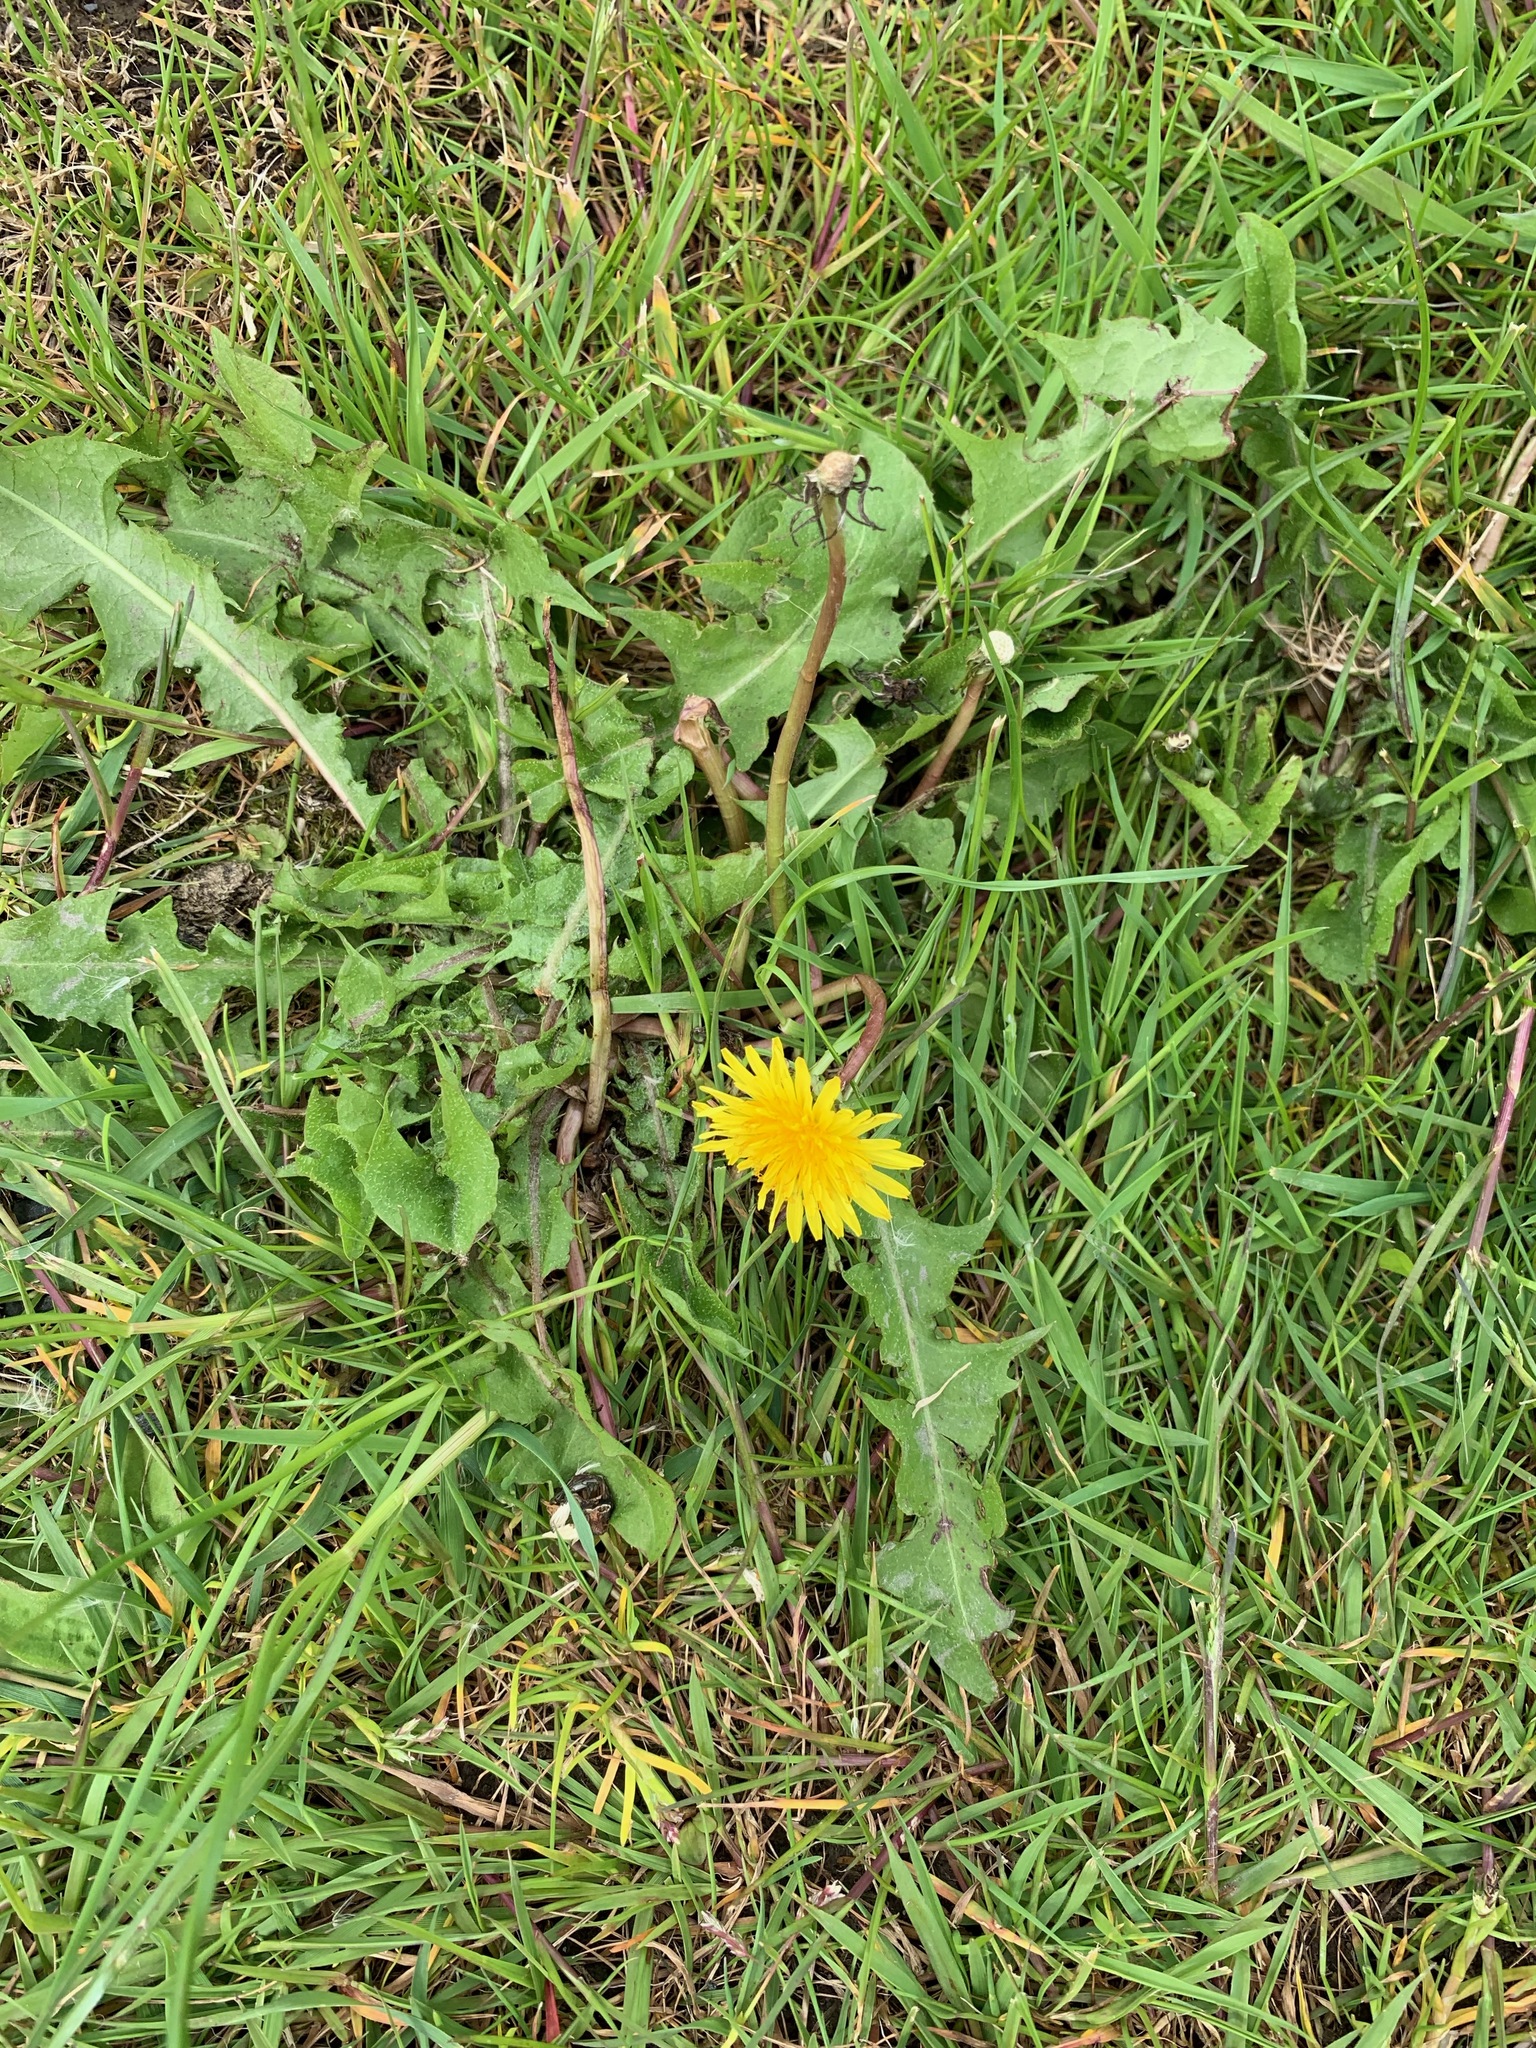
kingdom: Plantae
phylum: Tracheophyta
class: Magnoliopsida
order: Asterales
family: Asteraceae
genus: Taraxacum
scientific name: Taraxacum officinale
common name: Common dandelion
